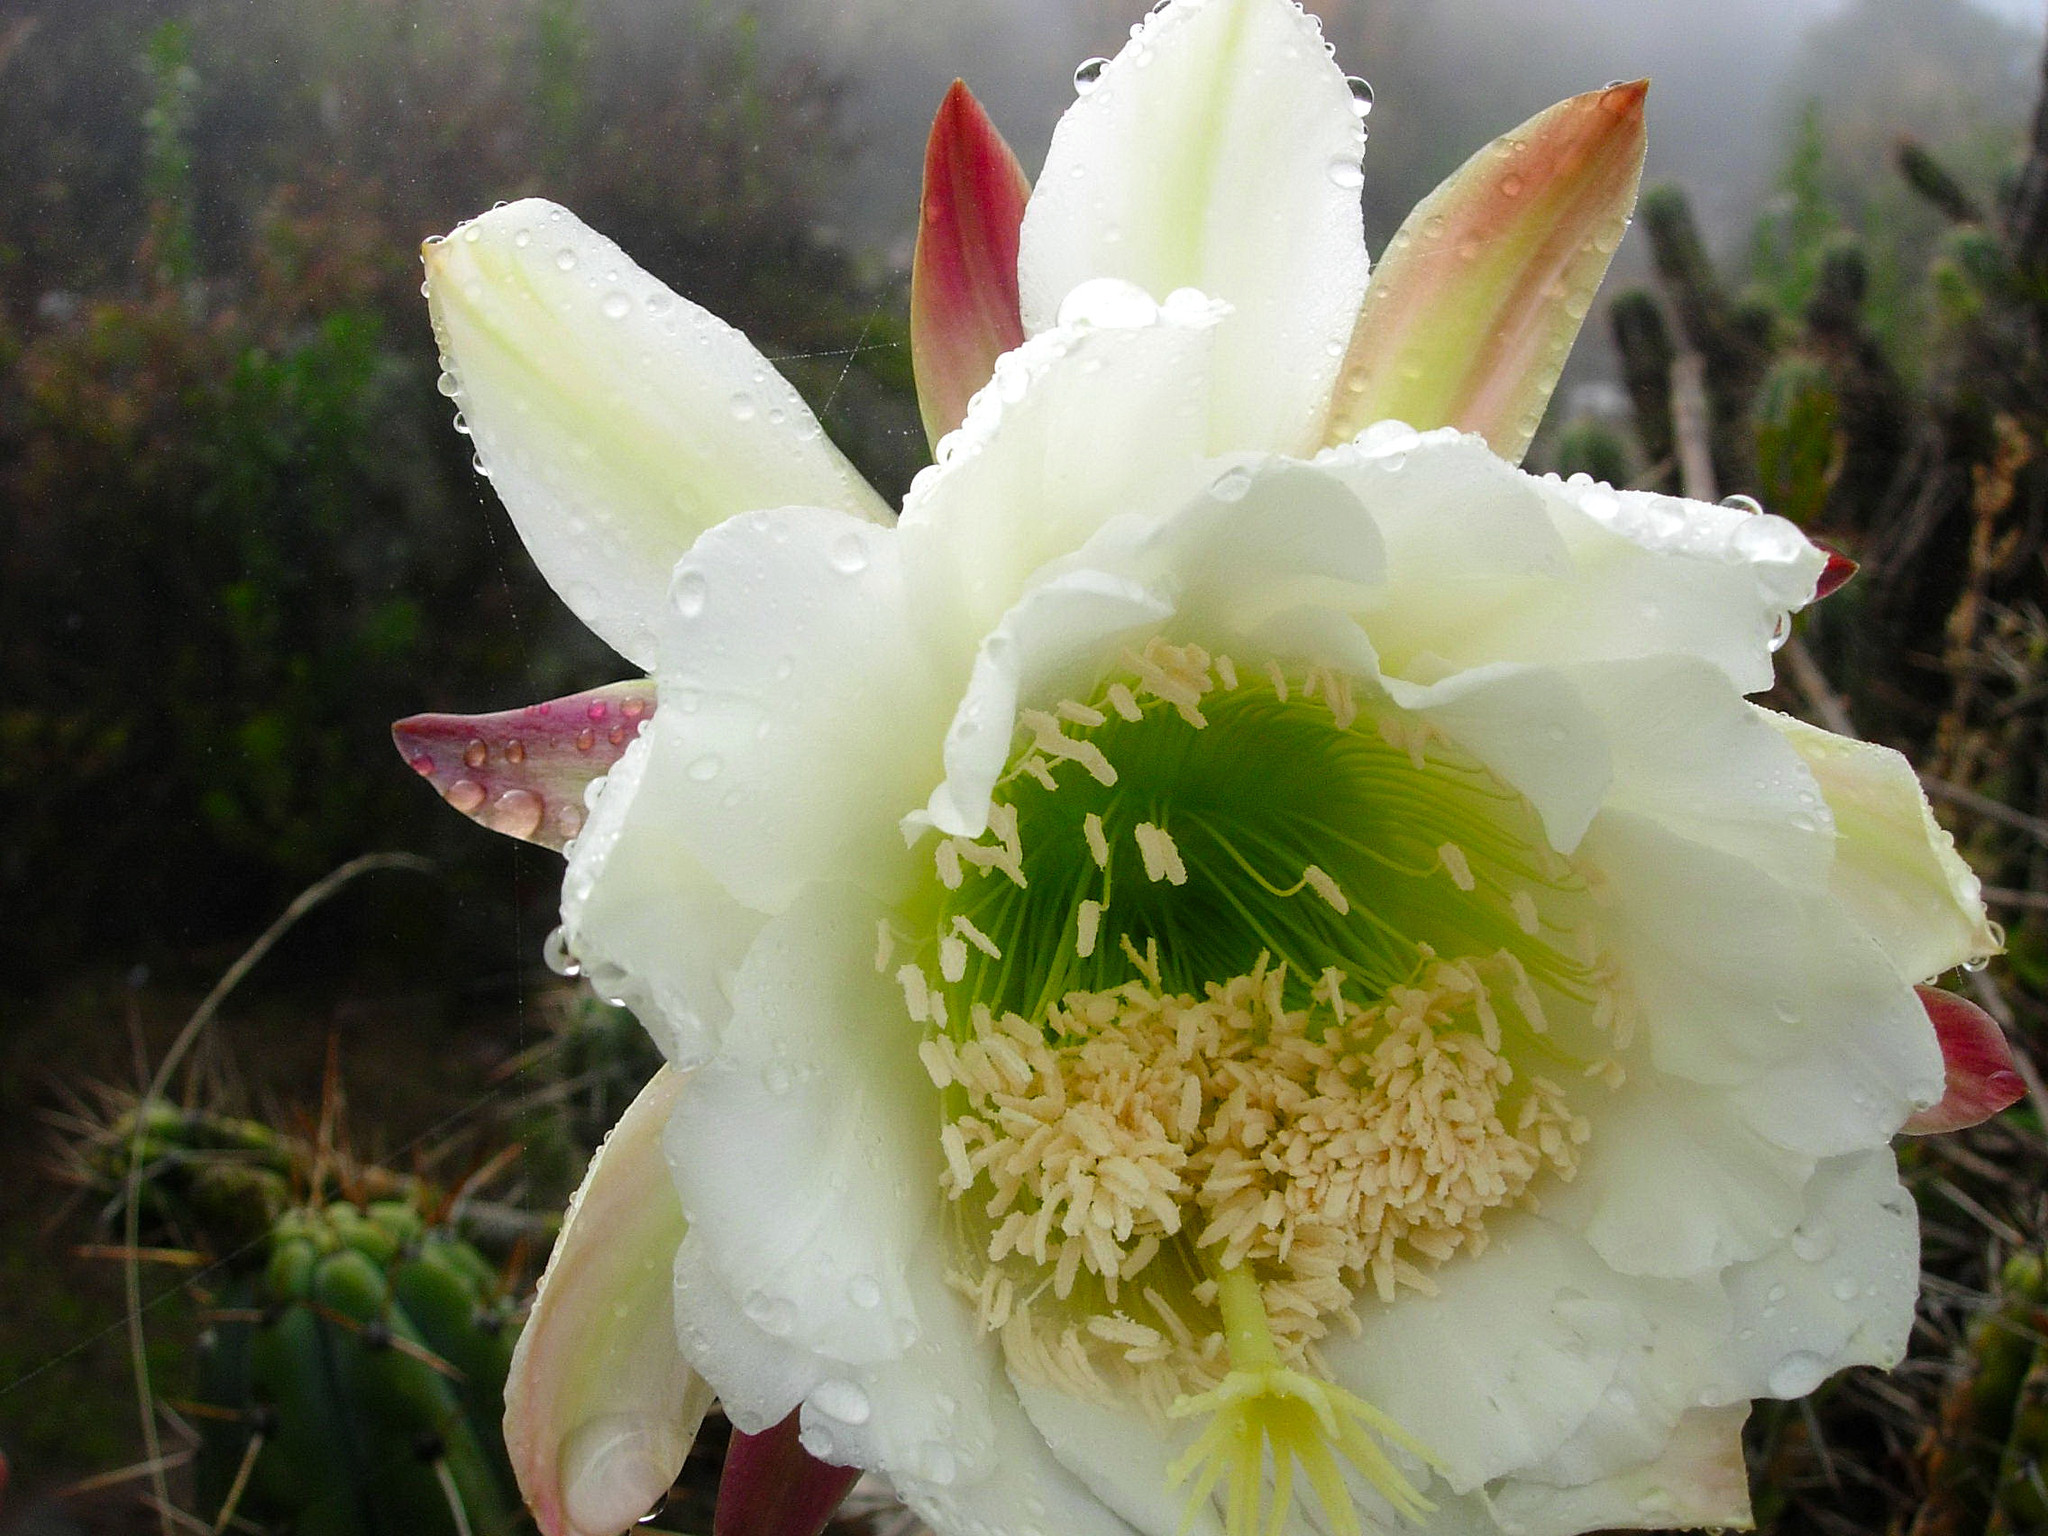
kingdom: Plantae
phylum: Tracheophyta
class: Magnoliopsida
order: Caryophyllales
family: Cactaceae
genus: Trichocereus
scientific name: Trichocereus cuzcoensis
